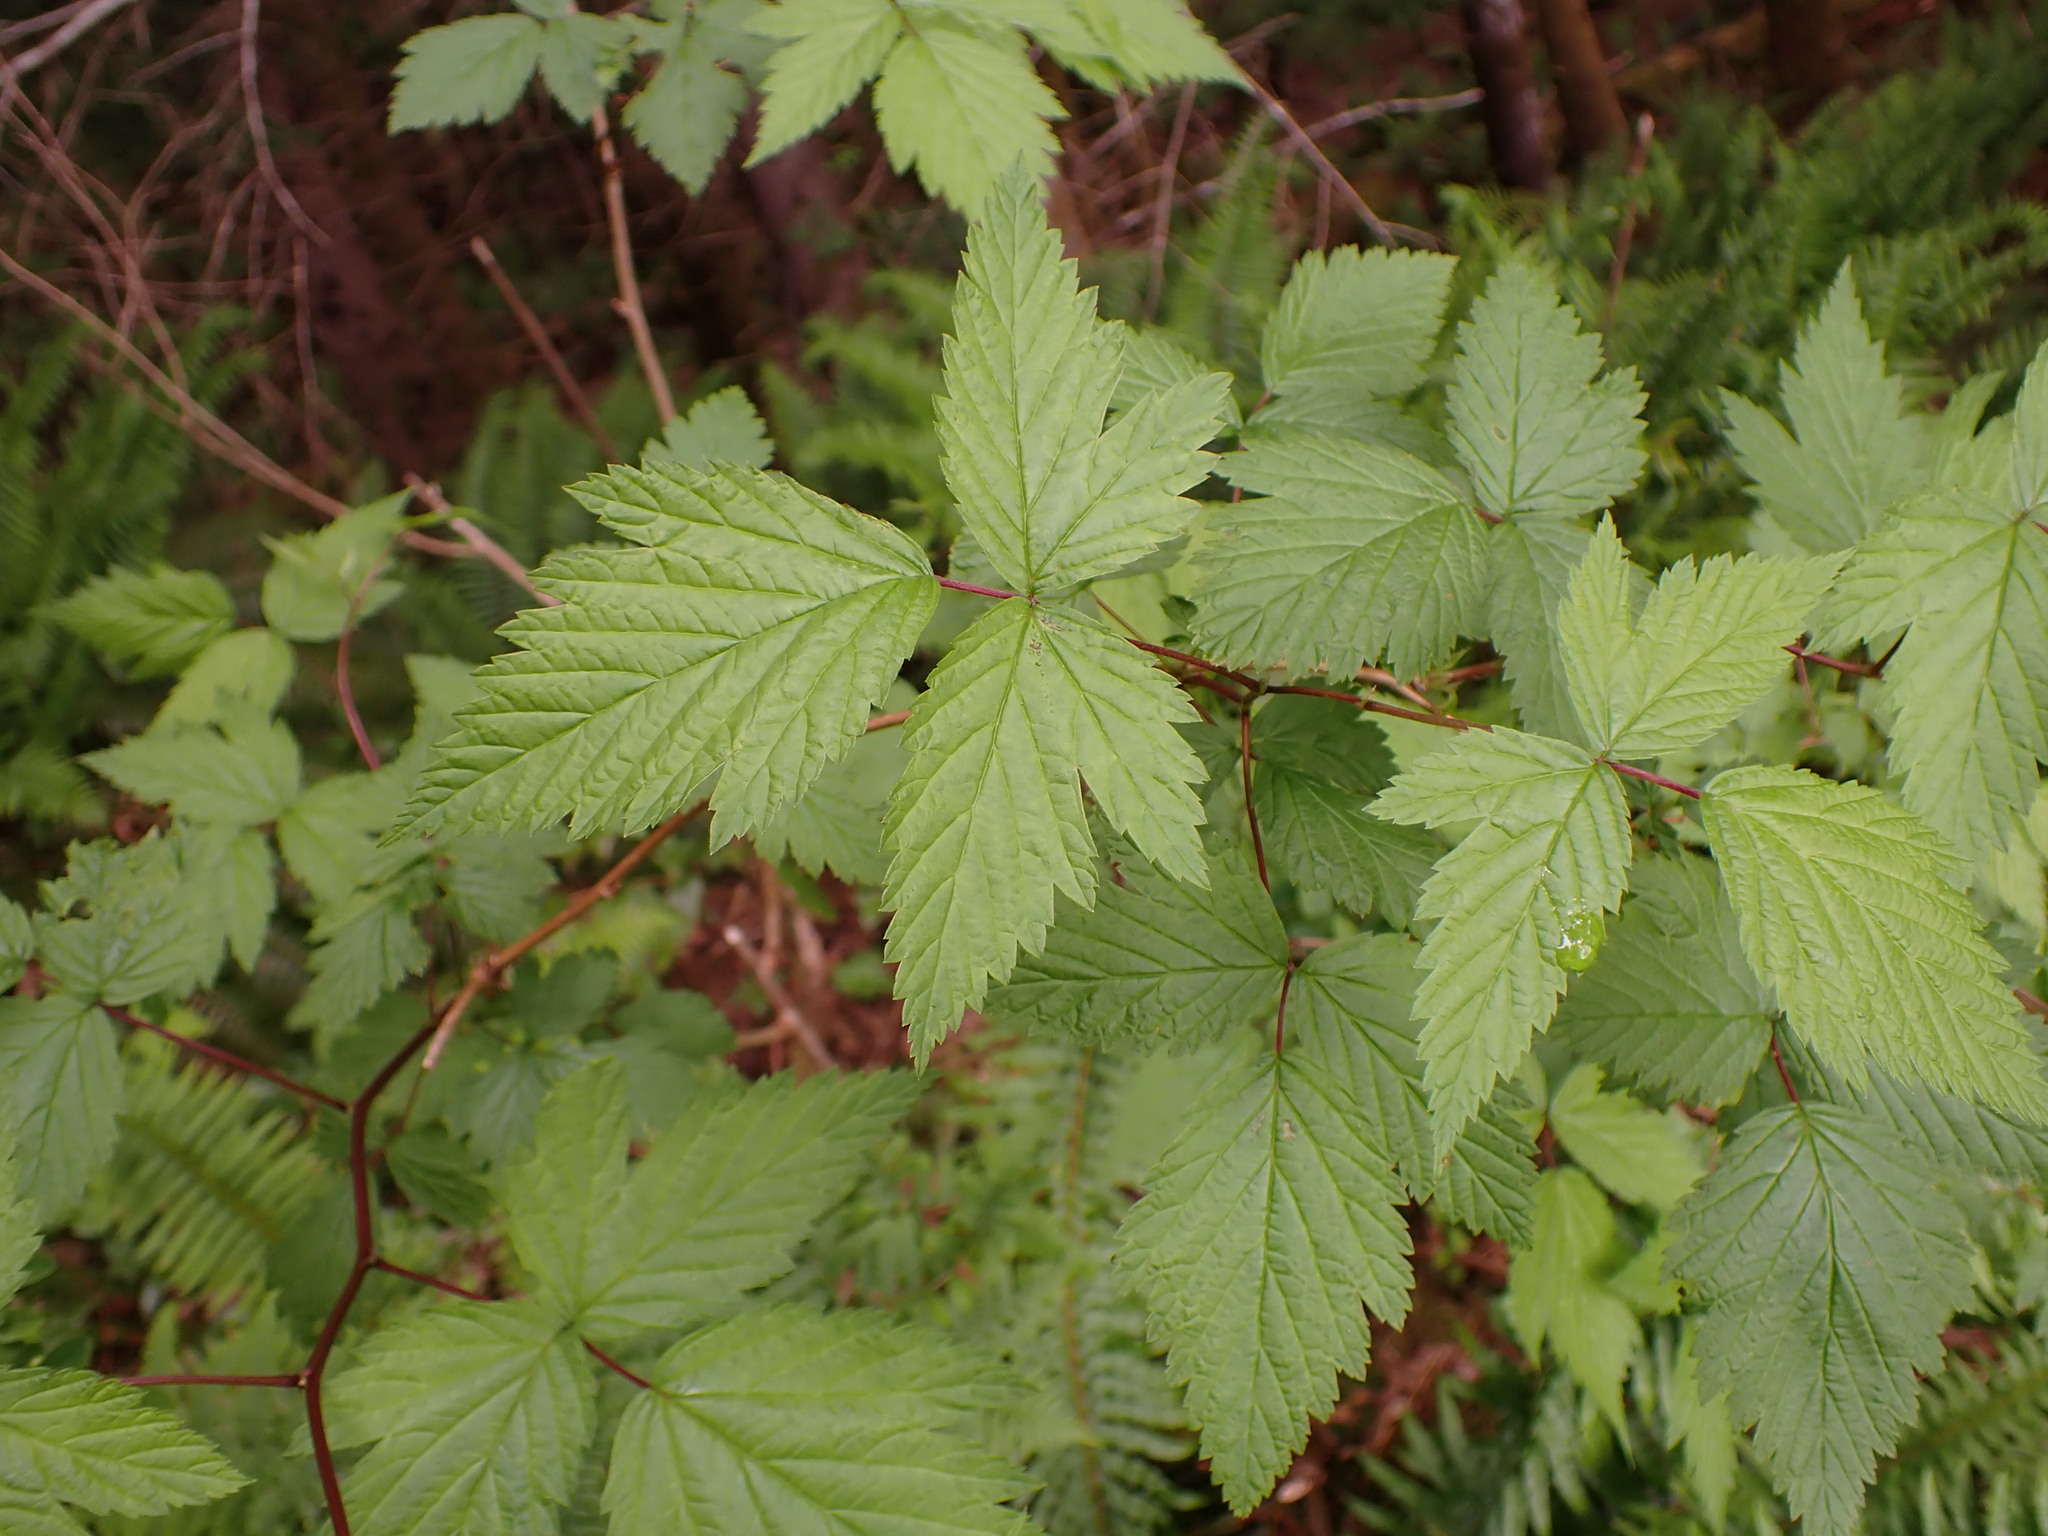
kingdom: Plantae
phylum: Tracheophyta
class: Magnoliopsida
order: Rosales
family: Rosaceae
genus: Rubus
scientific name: Rubus spectabilis
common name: Salmonberry
